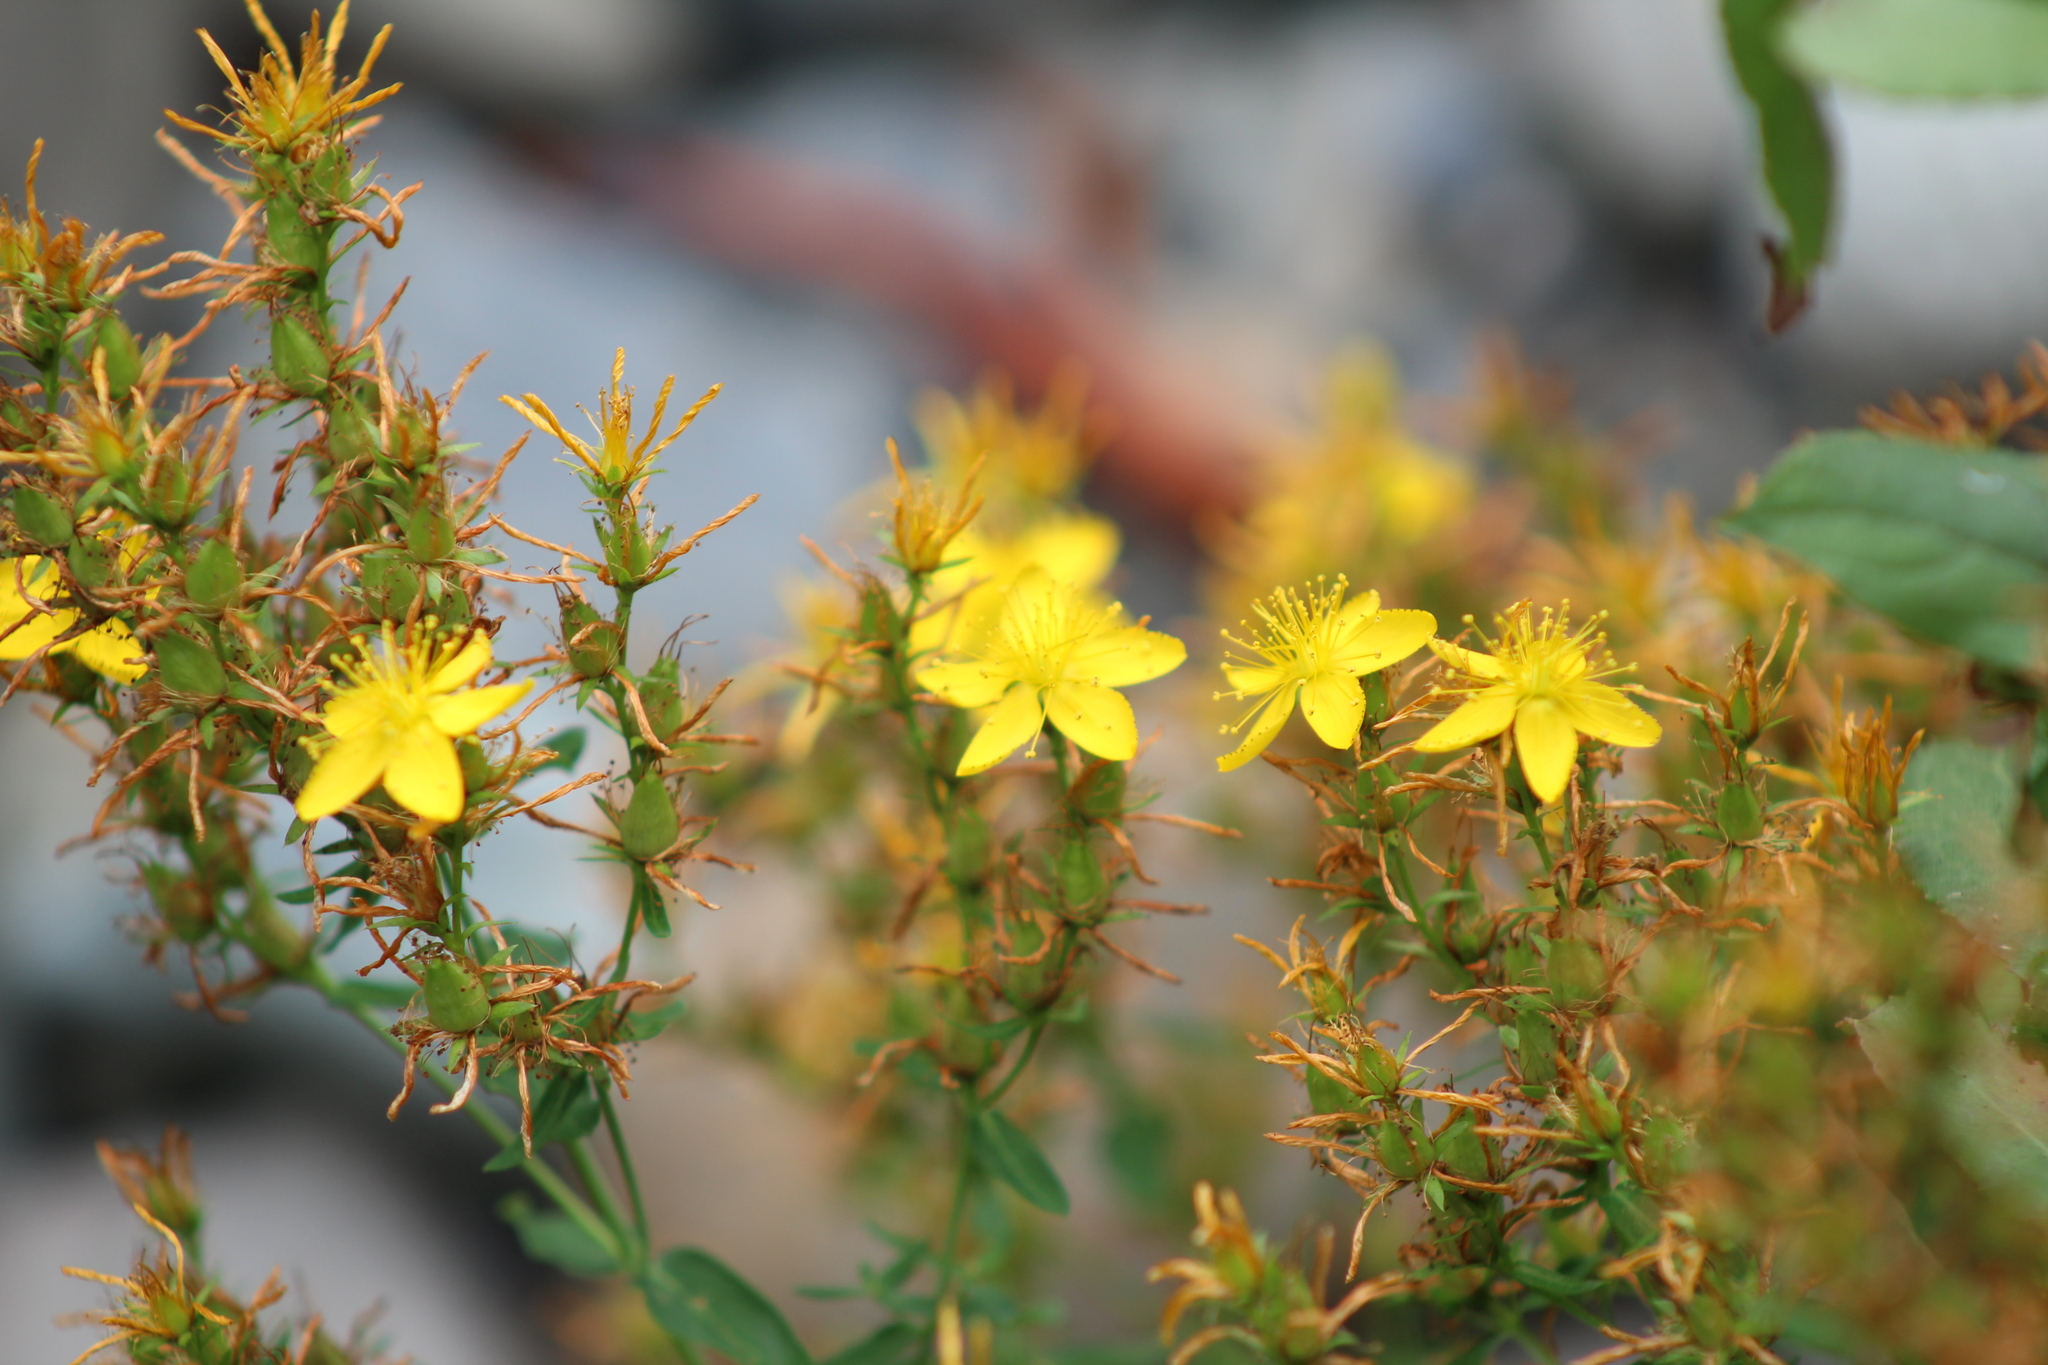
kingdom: Plantae
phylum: Tracheophyta
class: Magnoliopsida
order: Malpighiales
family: Hypericaceae
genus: Hypericum
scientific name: Hypericum perforatum
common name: Common st. johnswort
